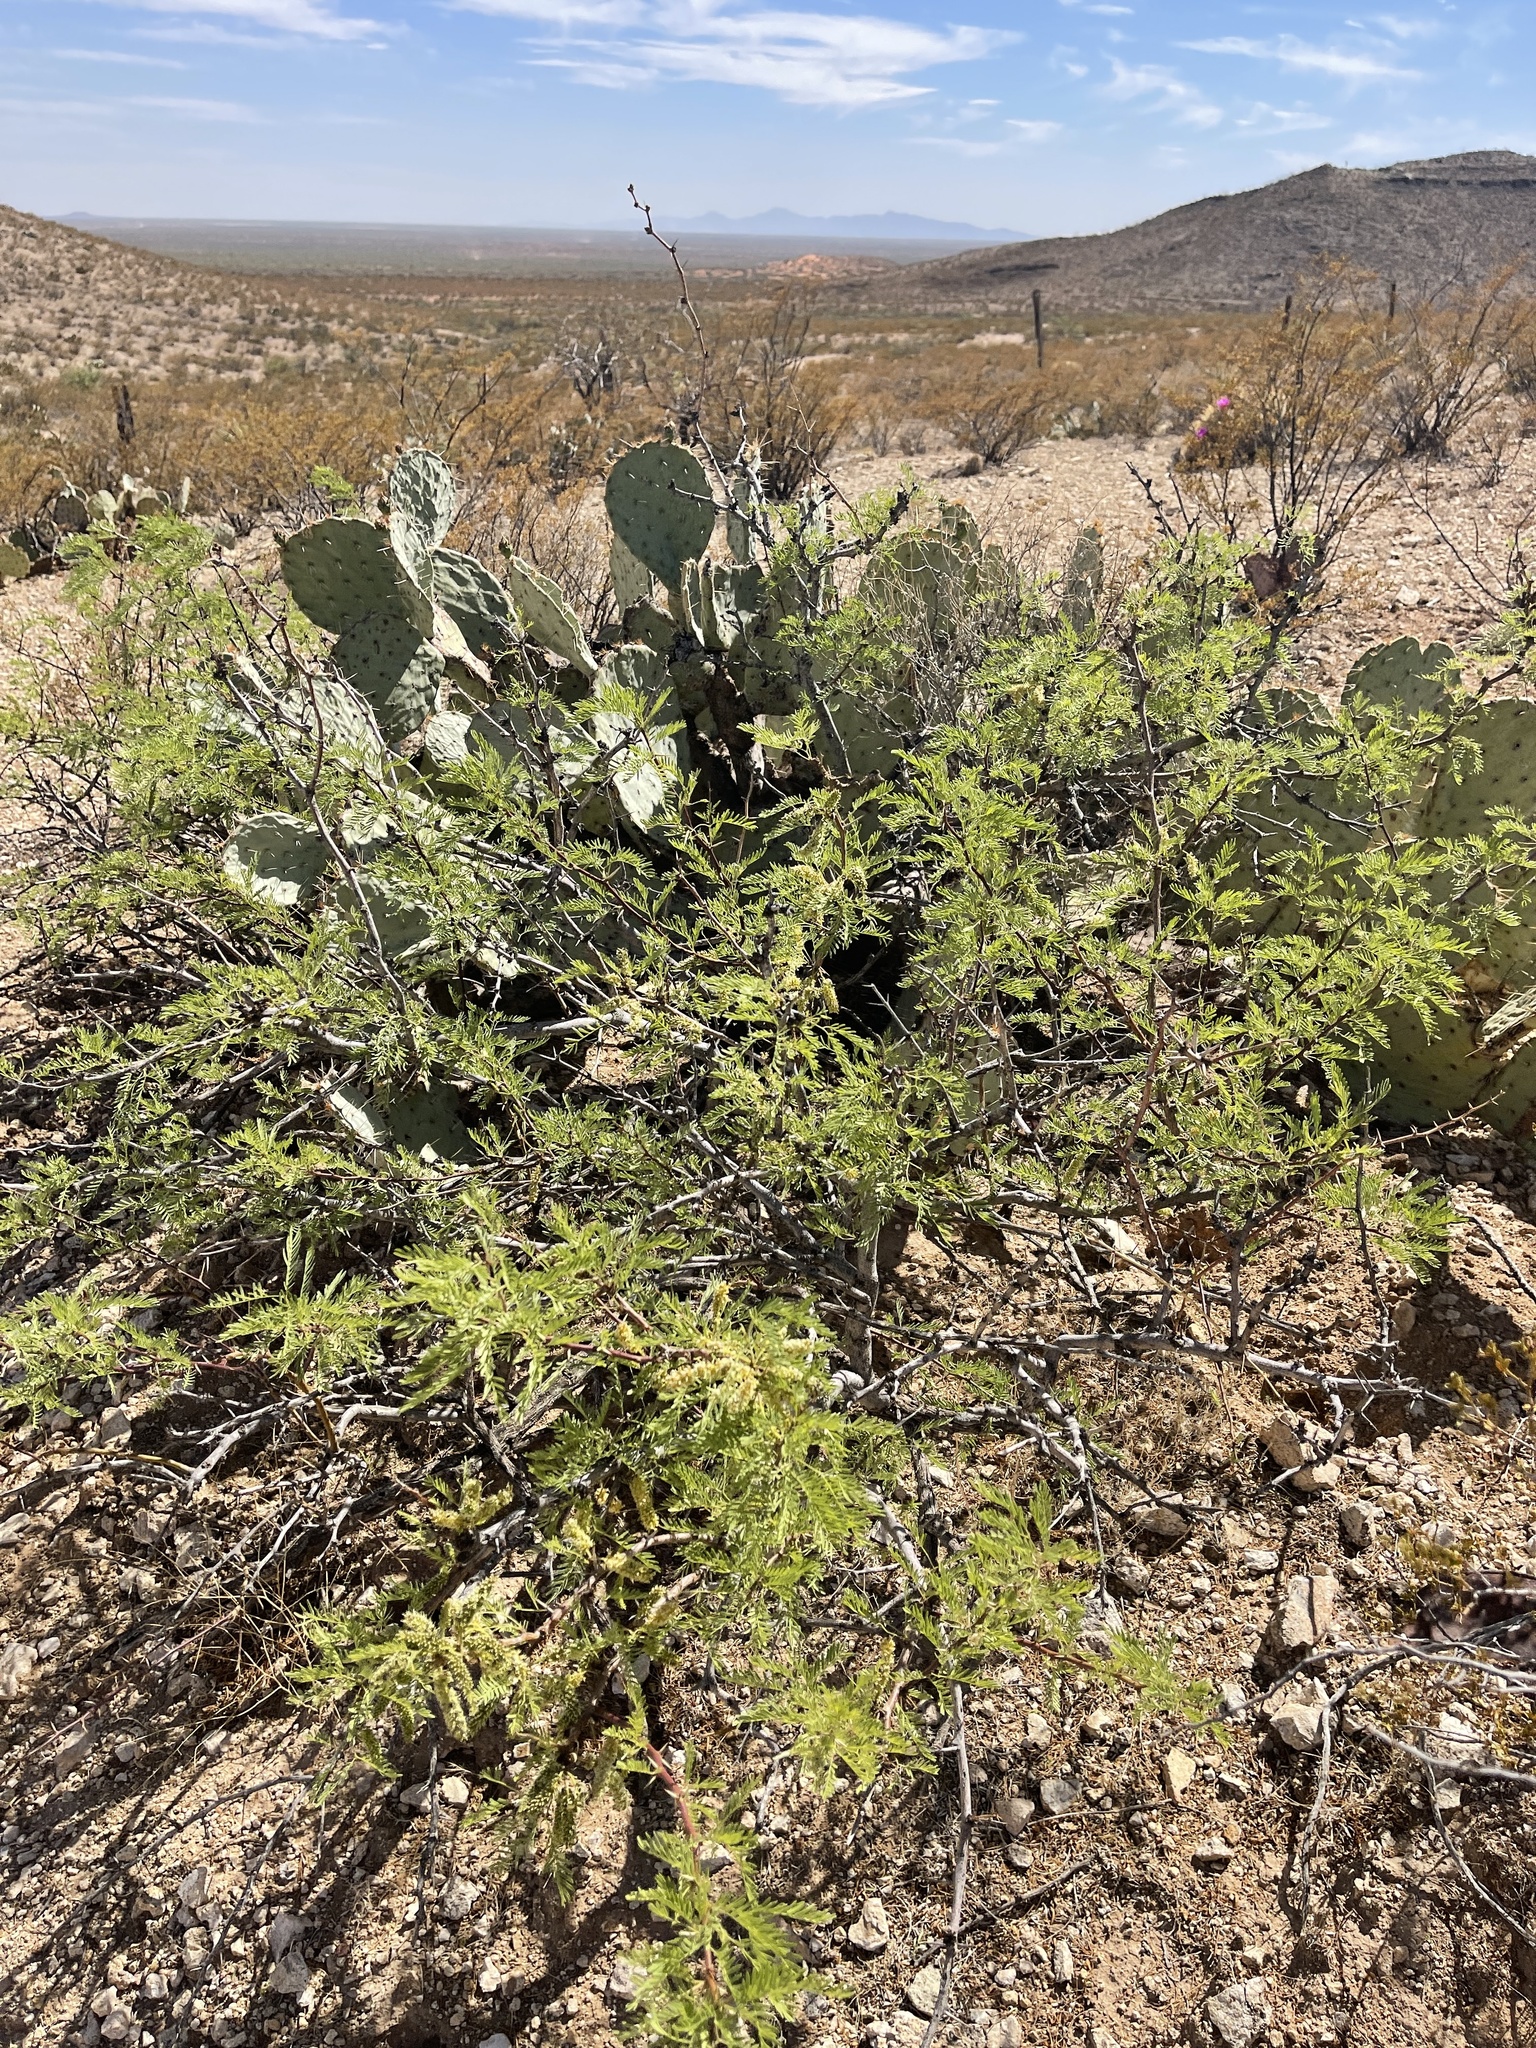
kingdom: Plantae
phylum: Tracheophyta
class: Magnoliopsida
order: Fabales
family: Fabaceae
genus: Prosopis
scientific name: Prosopis glandulosa
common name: Honey mesquite
